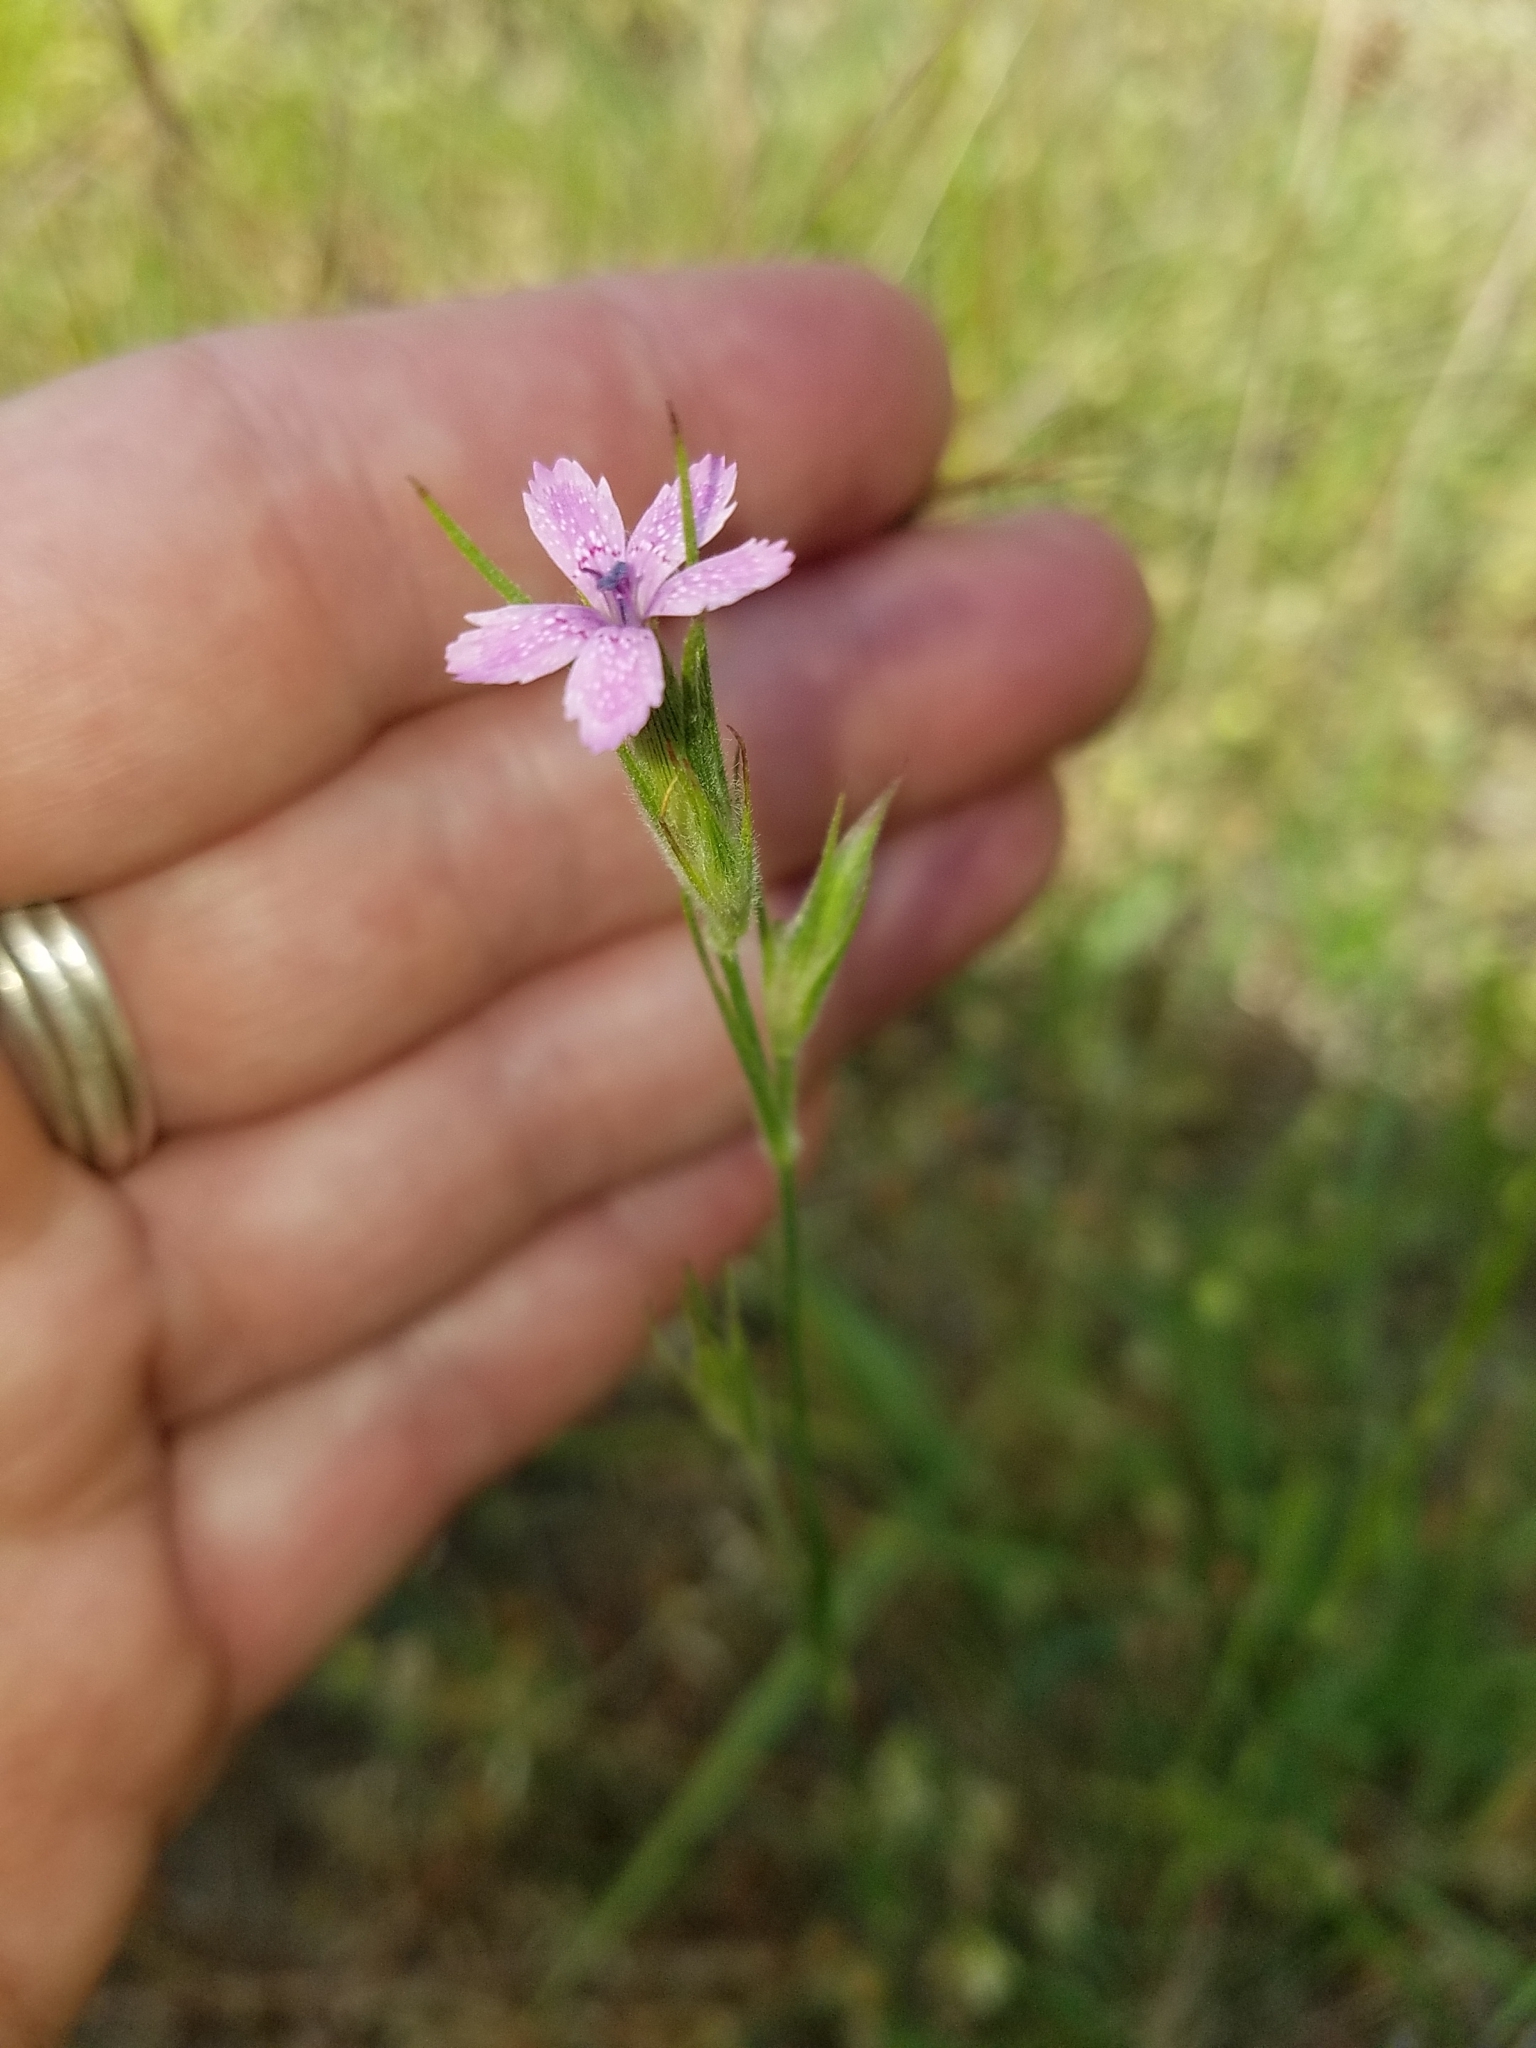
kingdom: Plantae
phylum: Tracheophyta
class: Magnoliopsida
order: Caryophyllales
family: Caryophyllaceae
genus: Dianthus
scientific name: Dianthus armeria
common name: Deptford pink
